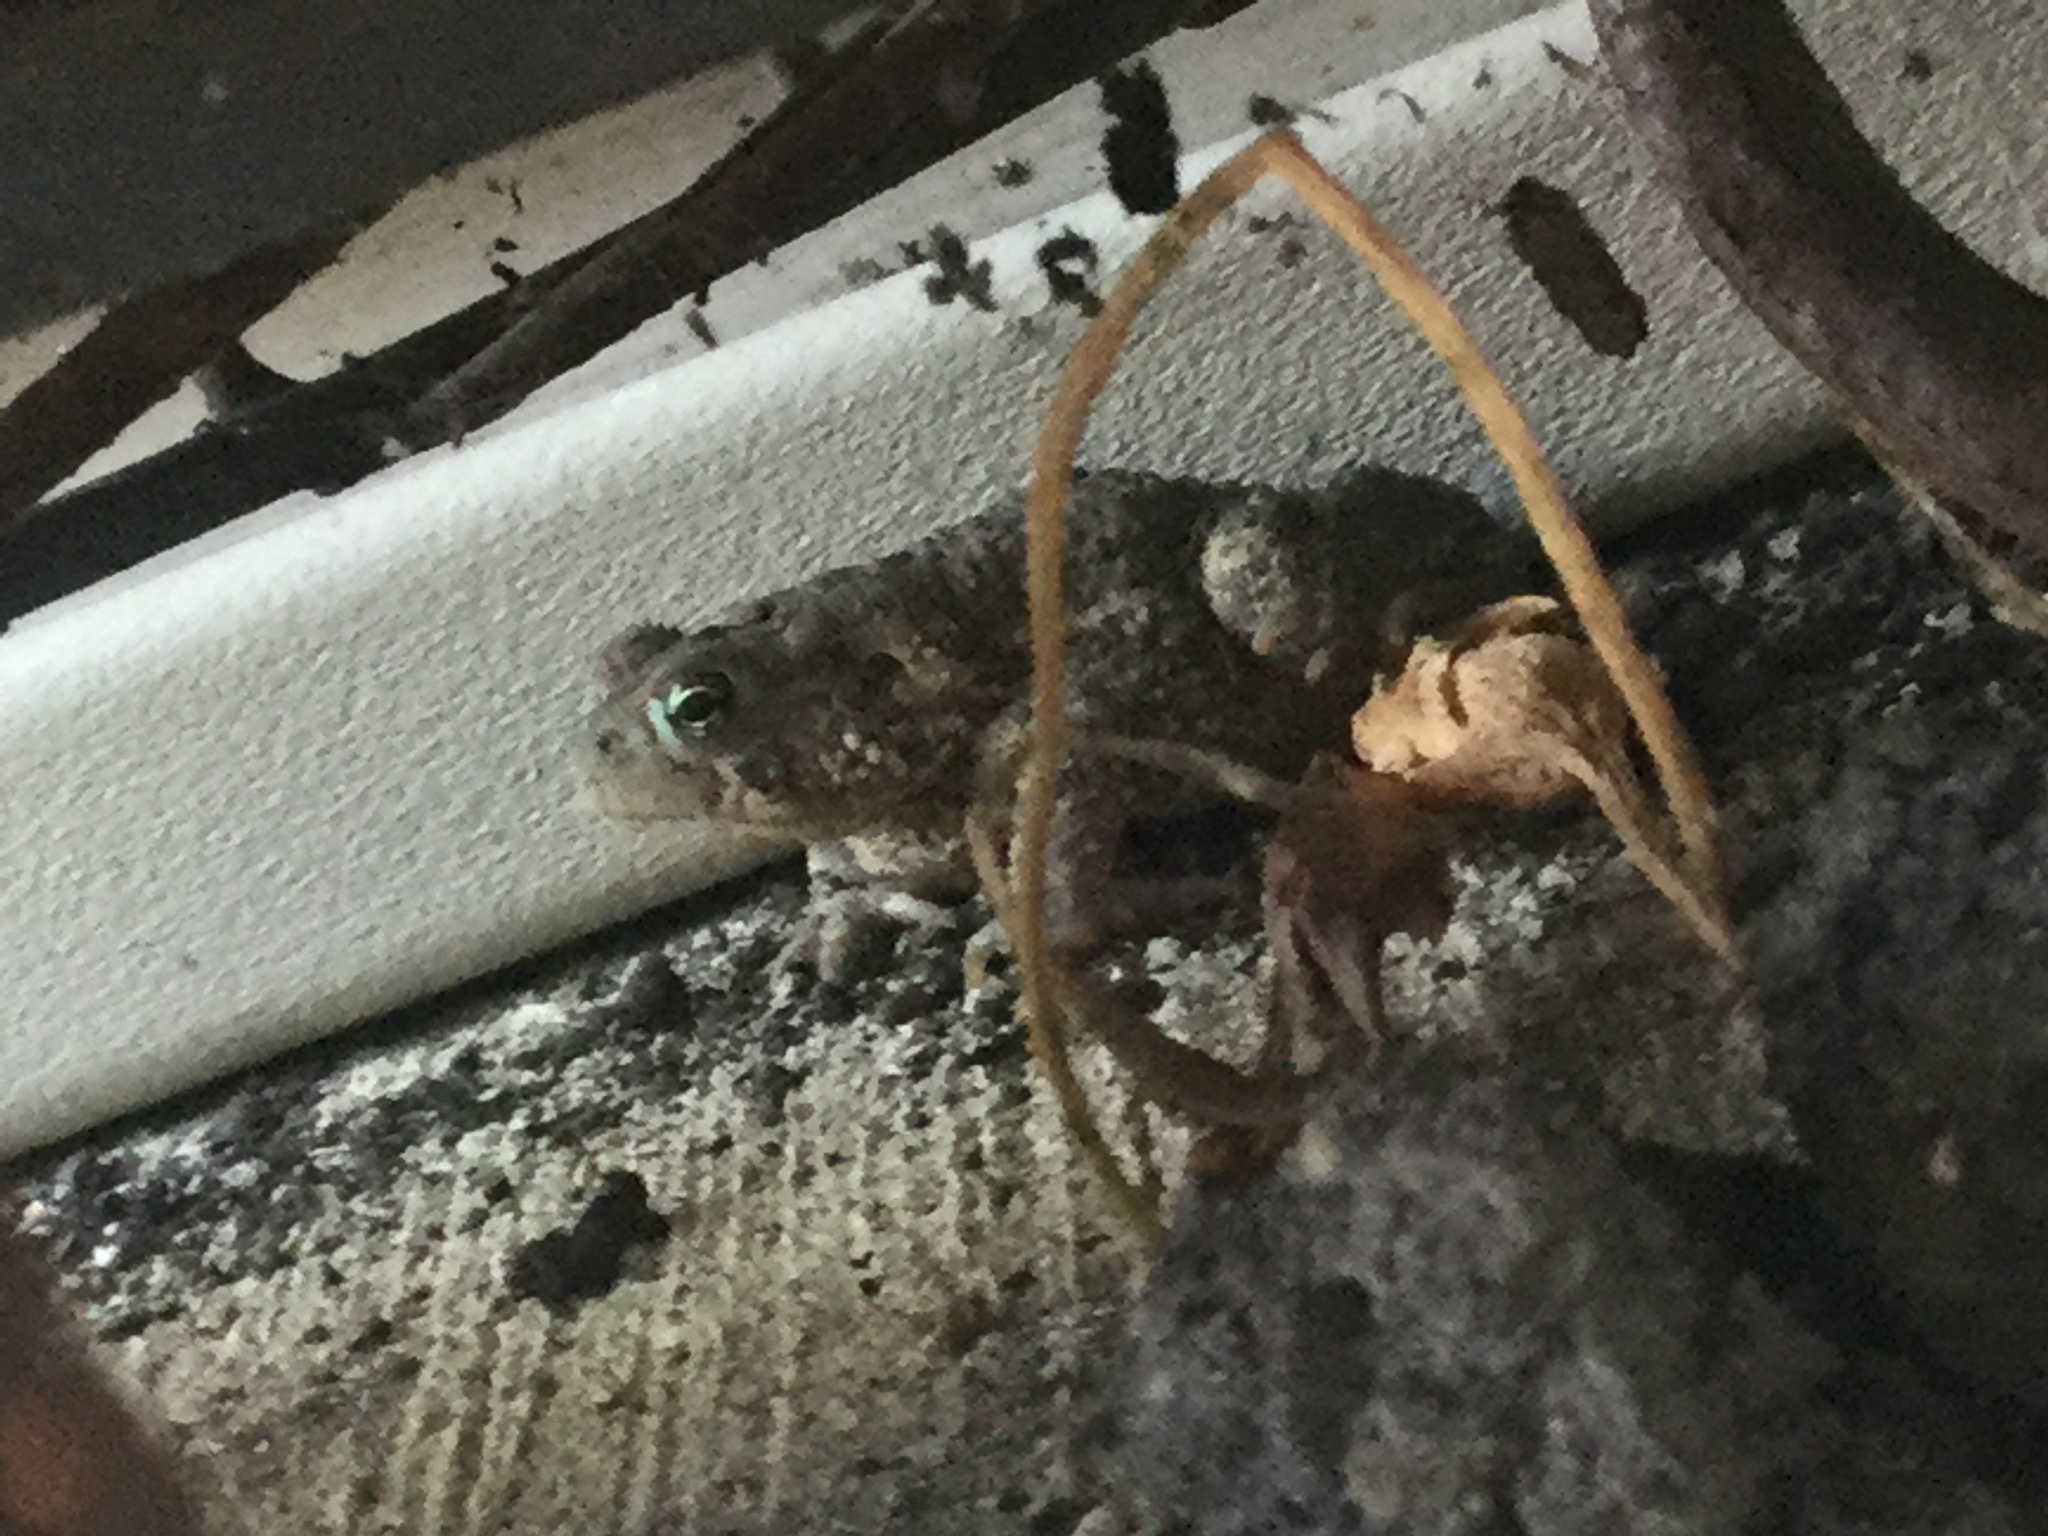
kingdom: Animalia
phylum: Chordata
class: Amphibia
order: Anura
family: Bufonidae
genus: Anaxyrus
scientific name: Anaxyrus americanus
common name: American toad
